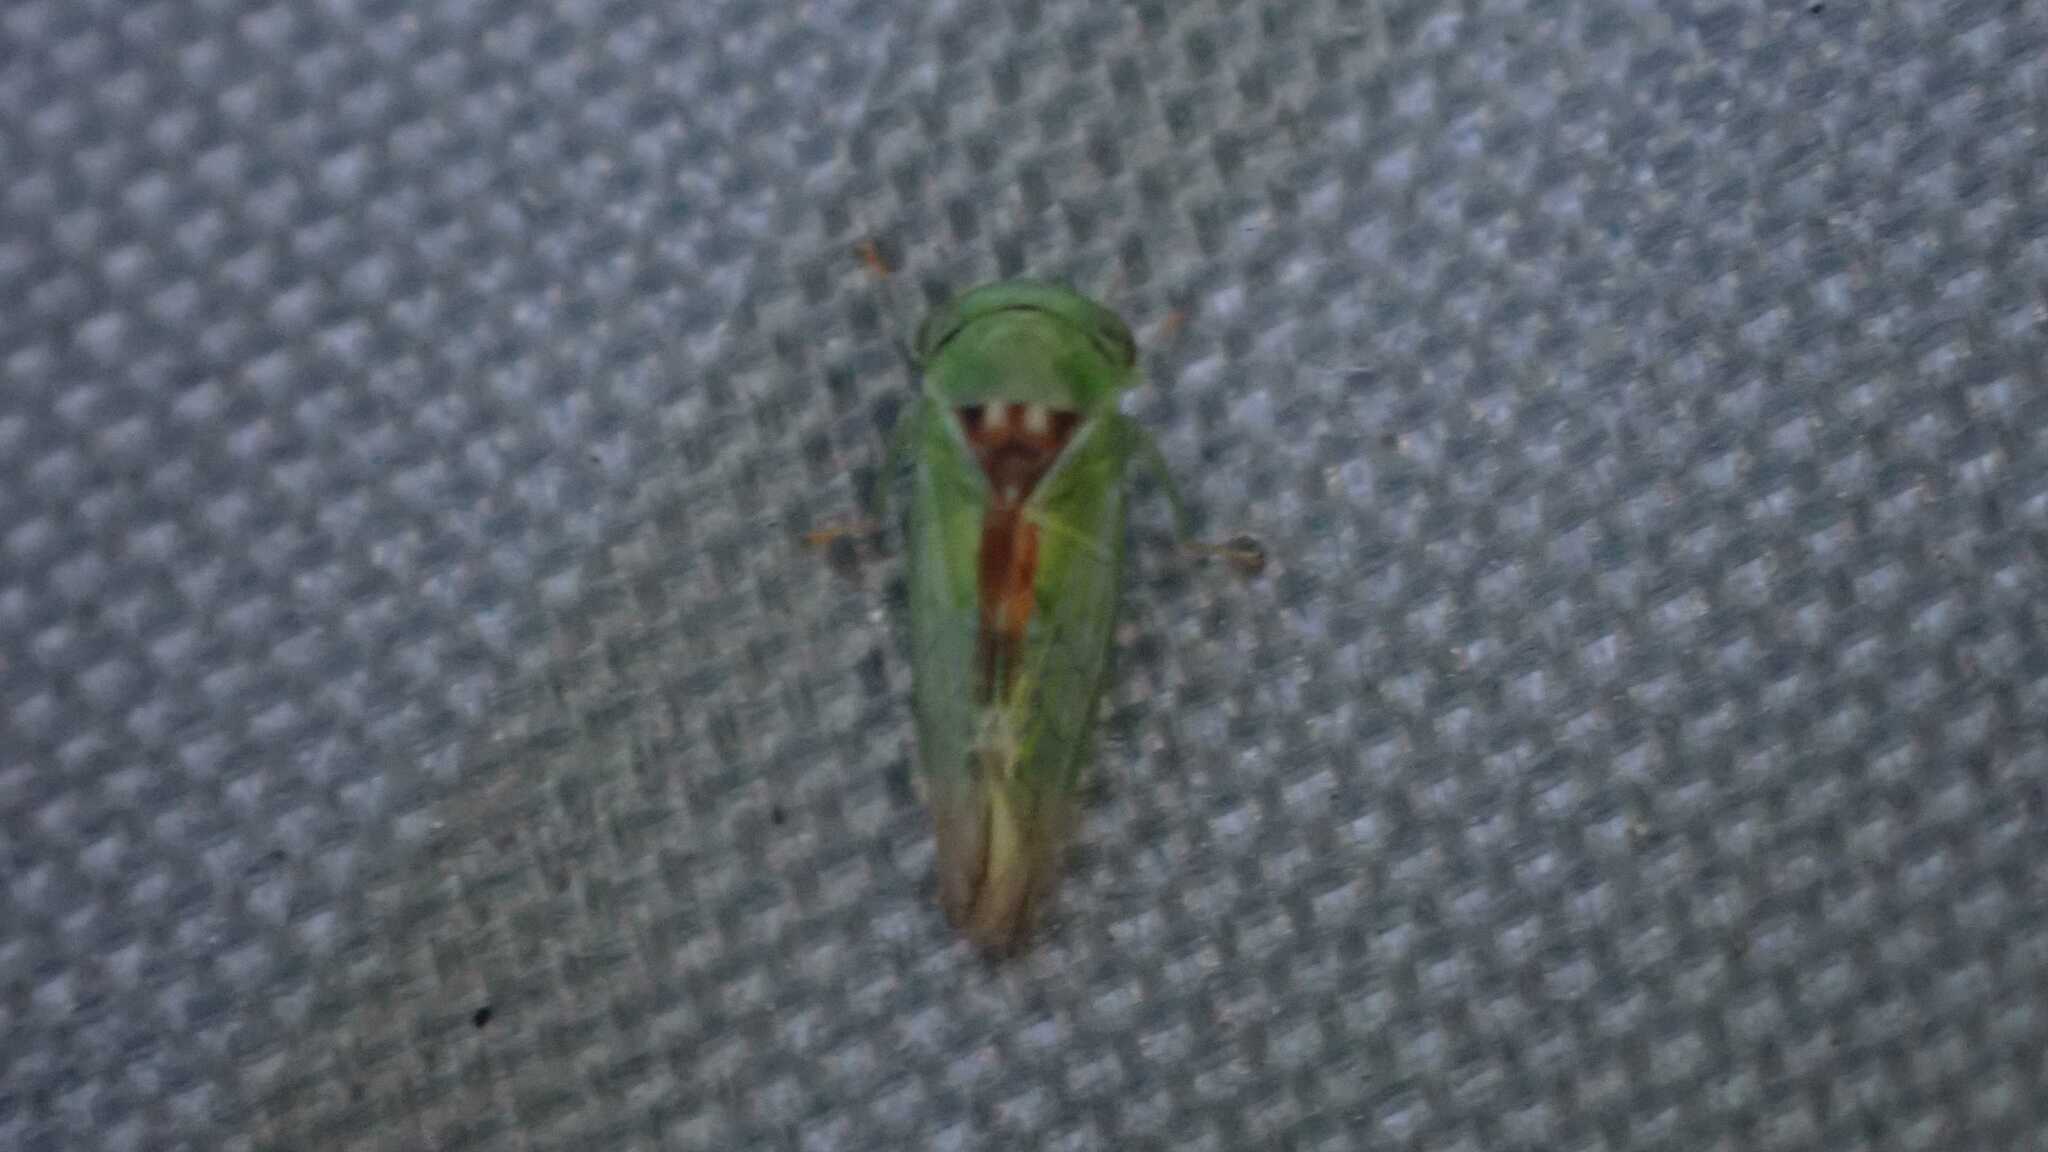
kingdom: Animalia
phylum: Arthropoda
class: Insecta
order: Hemiptera
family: Cicadellidae
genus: Viridicerus
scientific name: Viridicerus ustulatus
